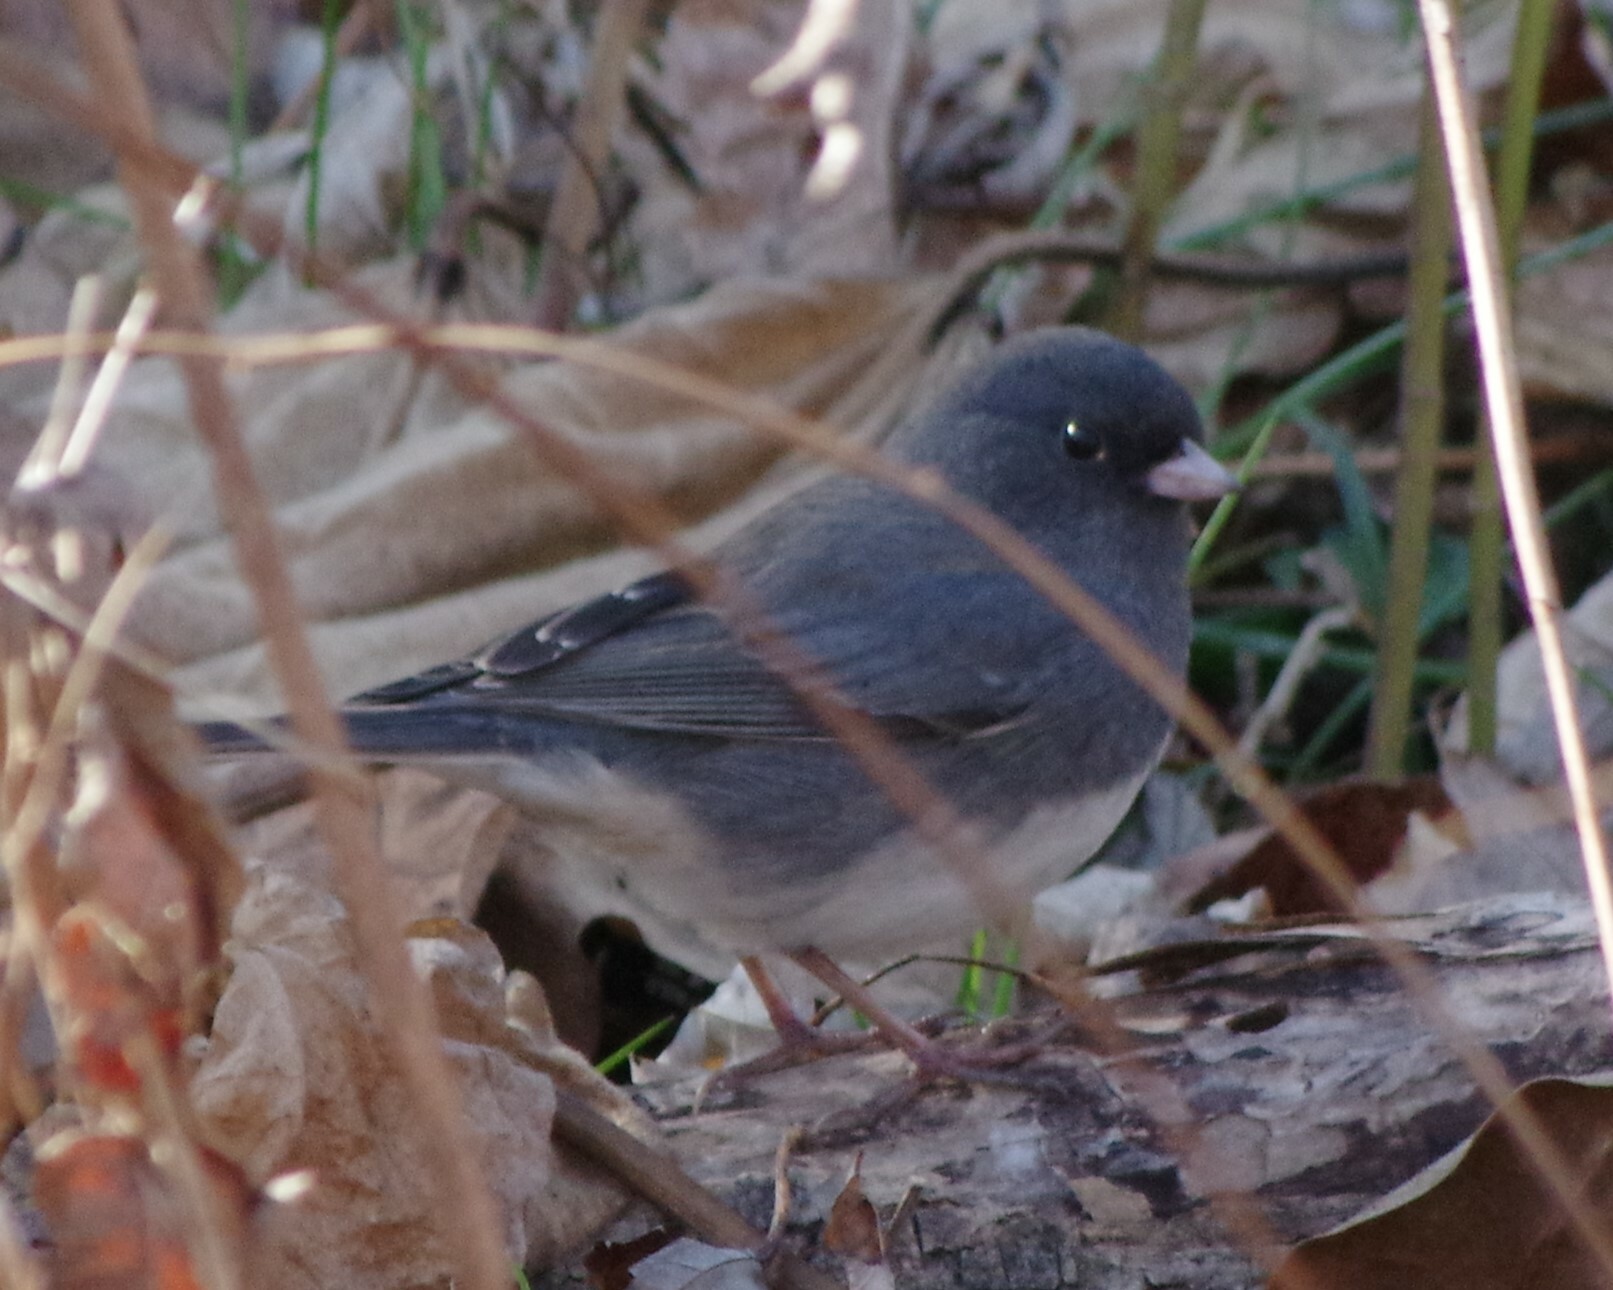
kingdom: Animalia
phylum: Chordata
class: Aves
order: Passeriformes
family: Passerellidae
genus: Junco
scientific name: Junco hyemalis
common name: Dark-eyed junco
